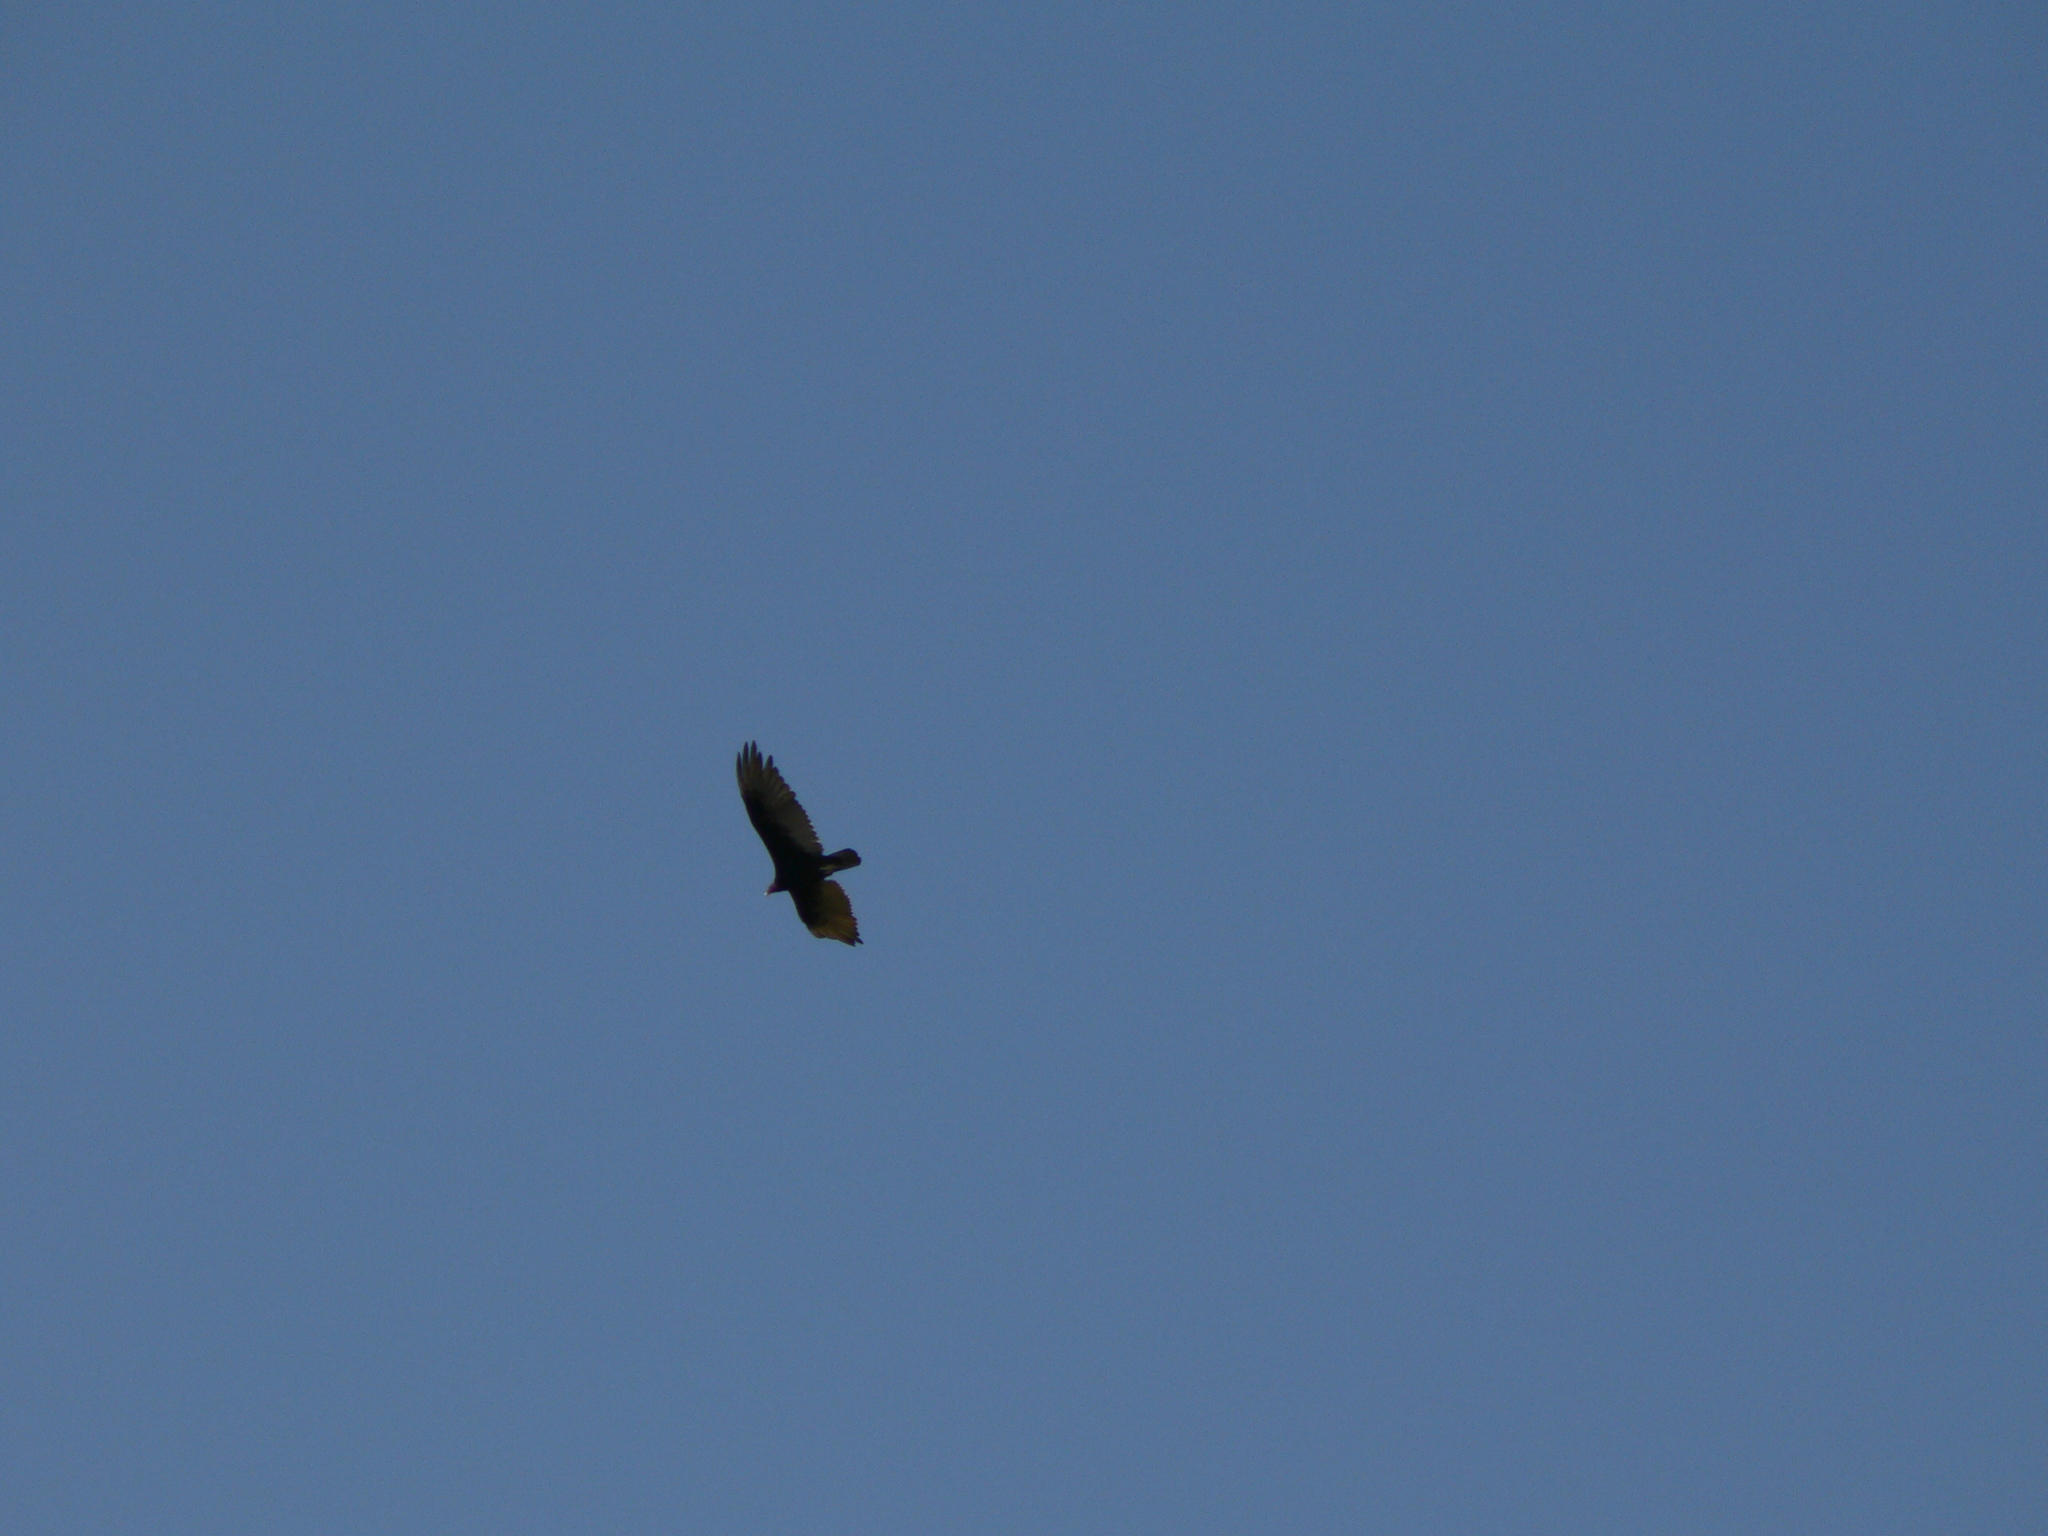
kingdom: Animalia
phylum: Chordata
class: Aves
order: Accipitriformes
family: Cathartidae
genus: Cathartes
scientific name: Cathartes aura
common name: Turkey vulture
